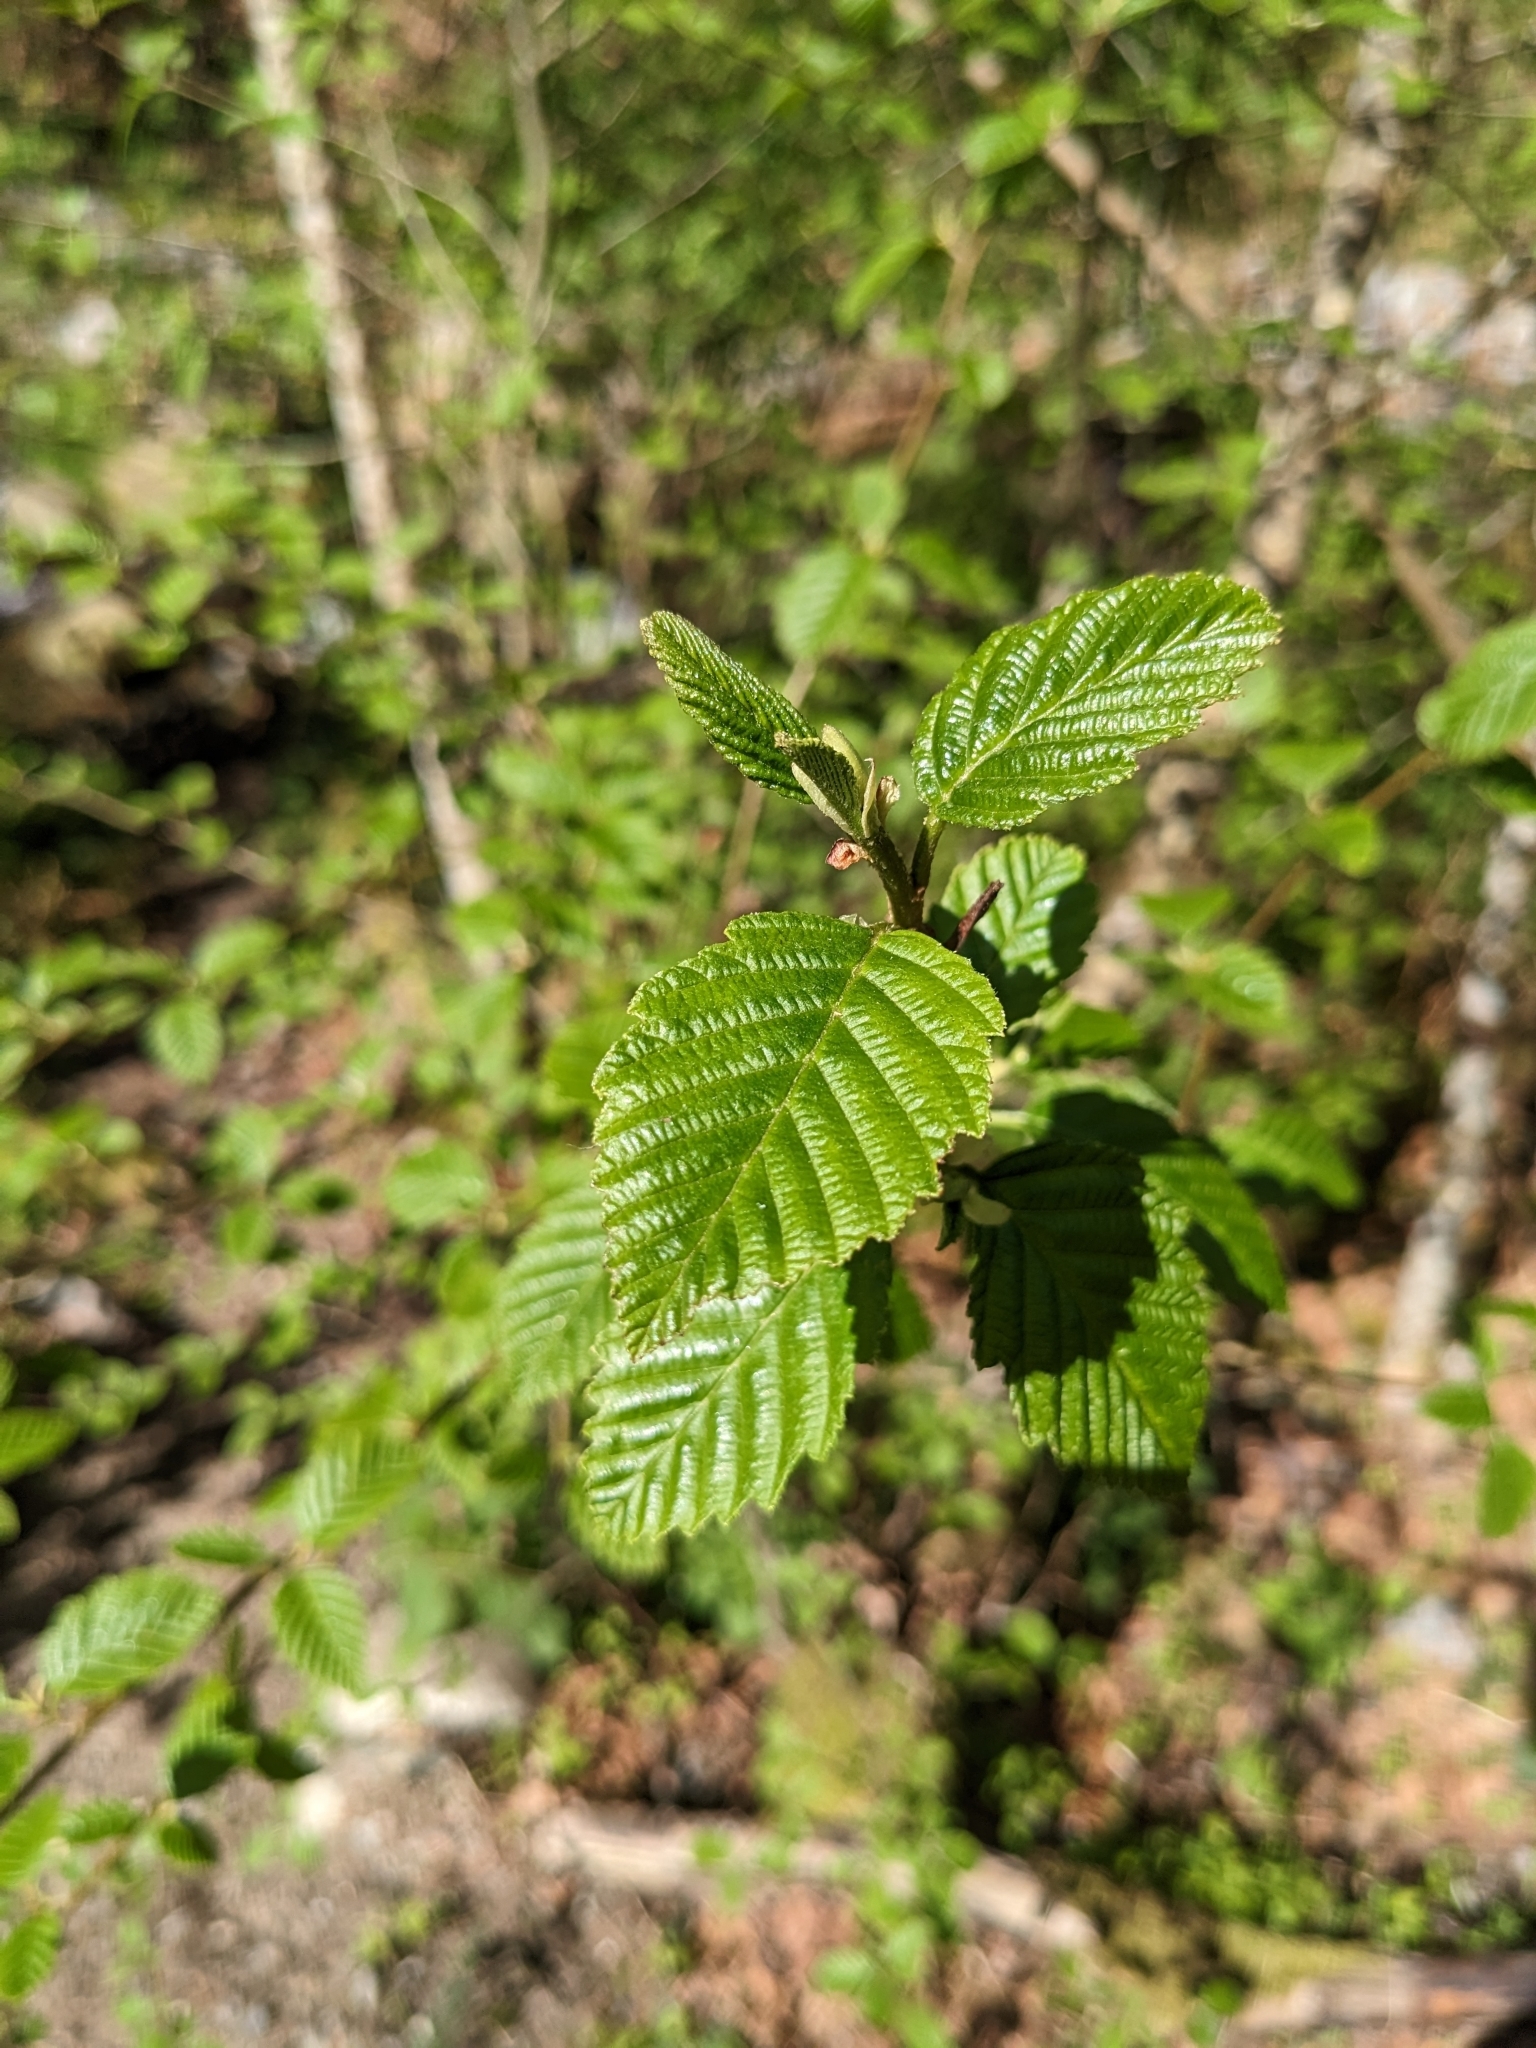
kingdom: Plantae
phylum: Tracheophyta
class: Magnoliopsida
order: Fagales
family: Betulaceae
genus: Alnus
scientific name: Alnus rubra
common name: Red alder
